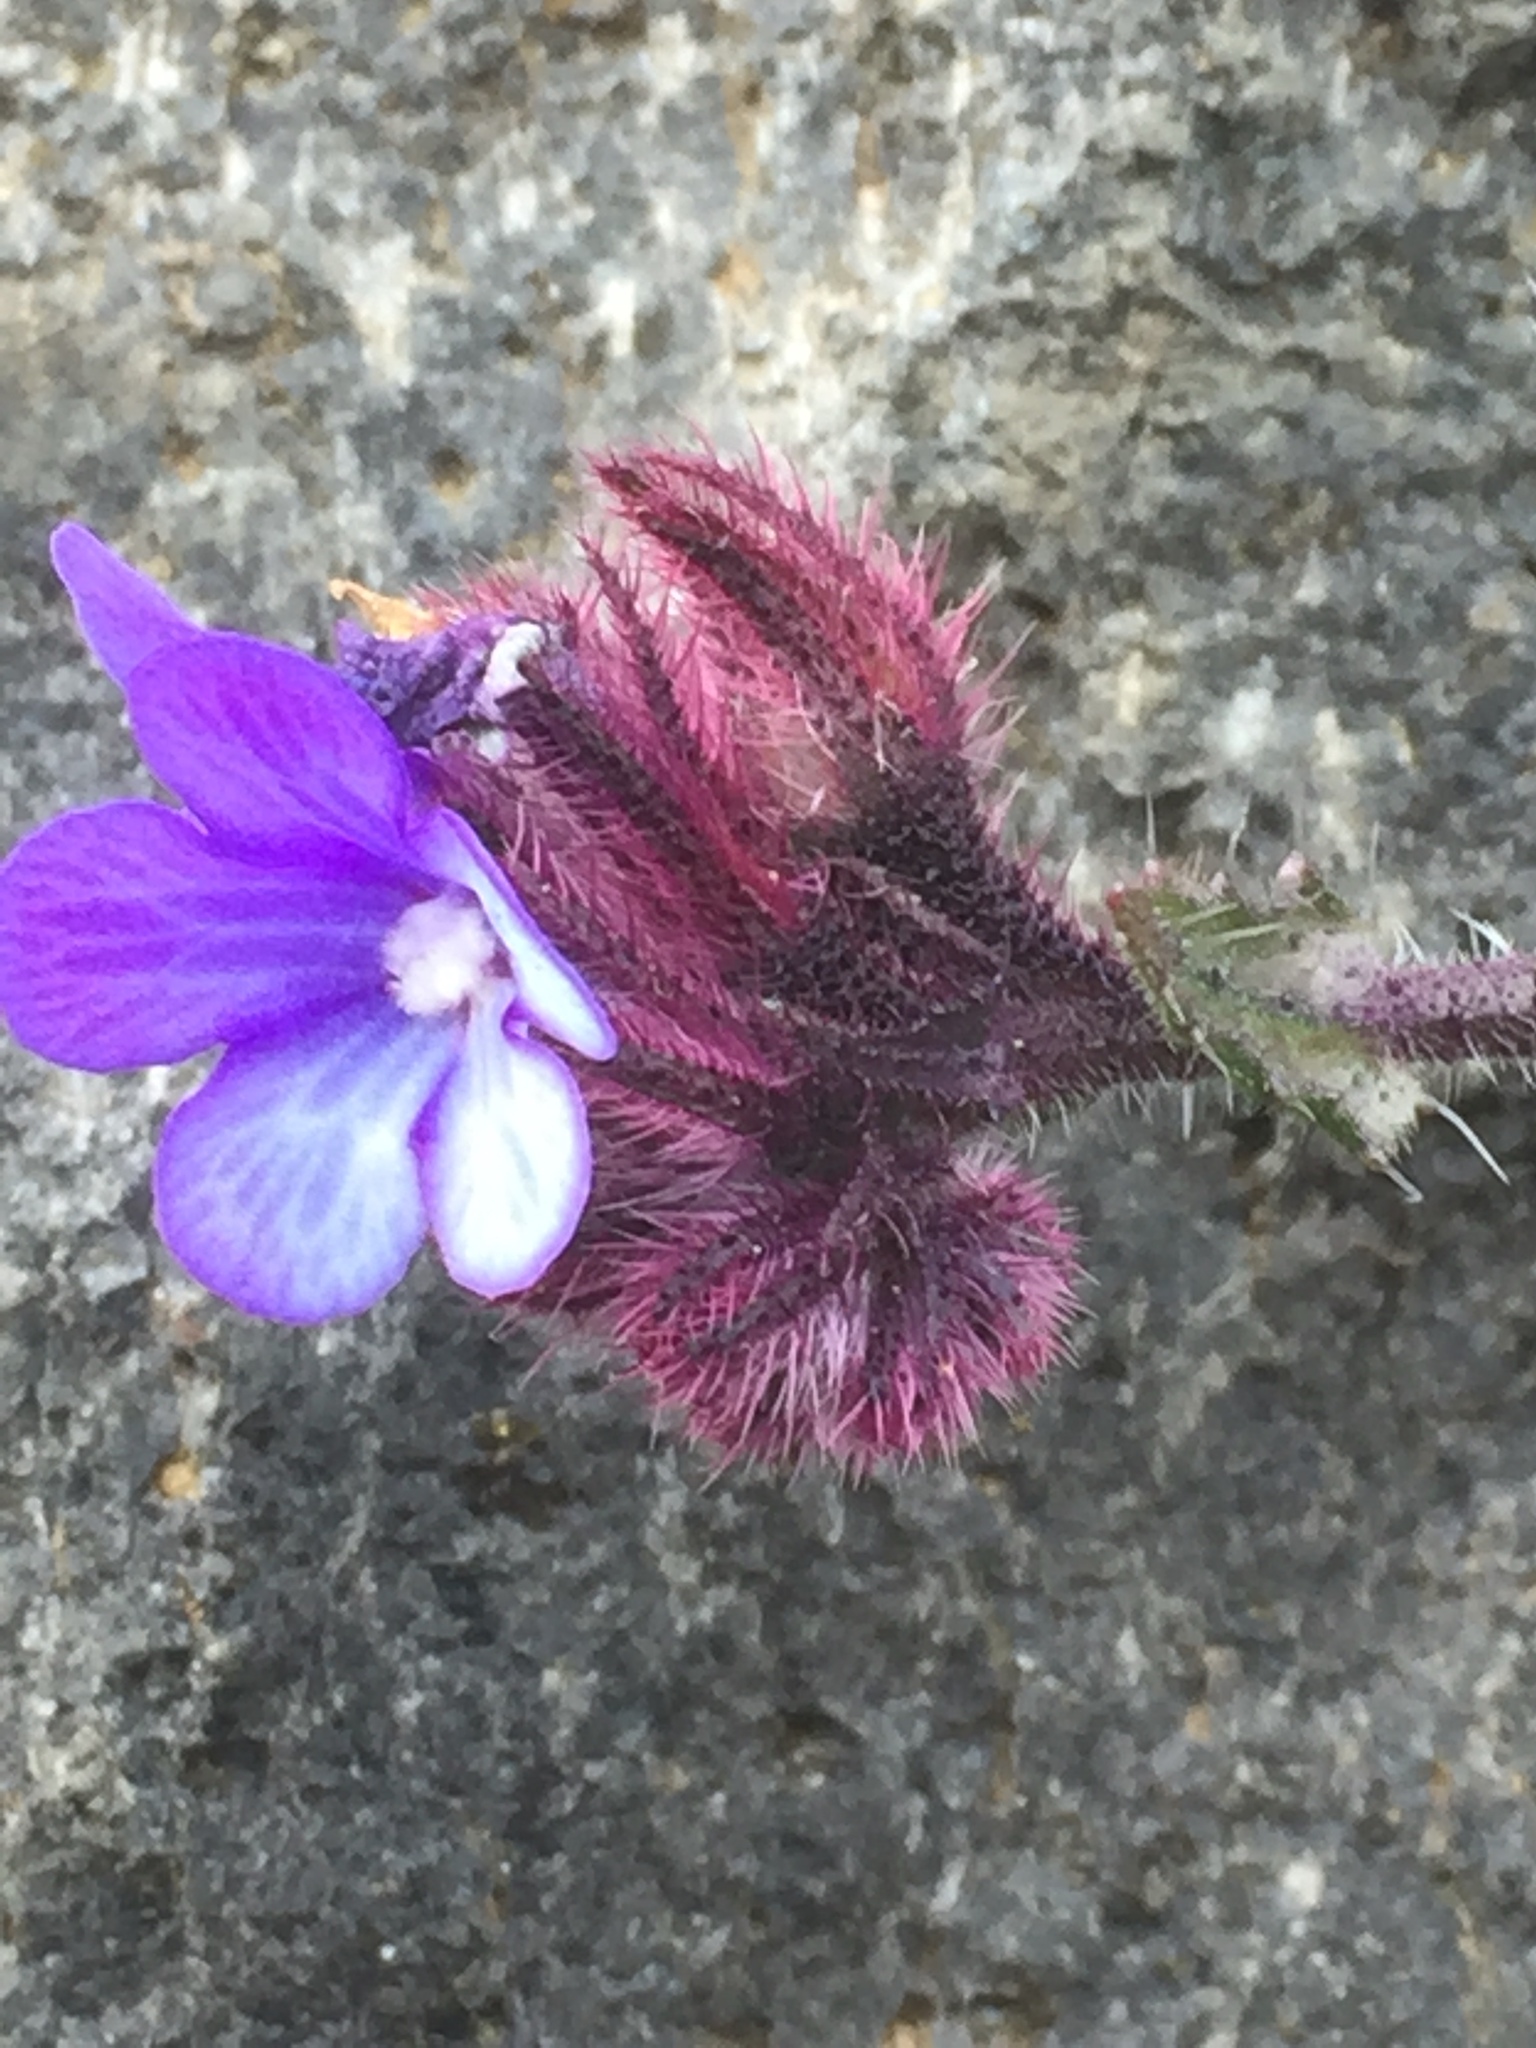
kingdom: Plantae
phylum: Tracheophyta
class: Magnoliopsida
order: Boraginales
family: Boraginaceae
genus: Anchusella
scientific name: Anchusella cretica
